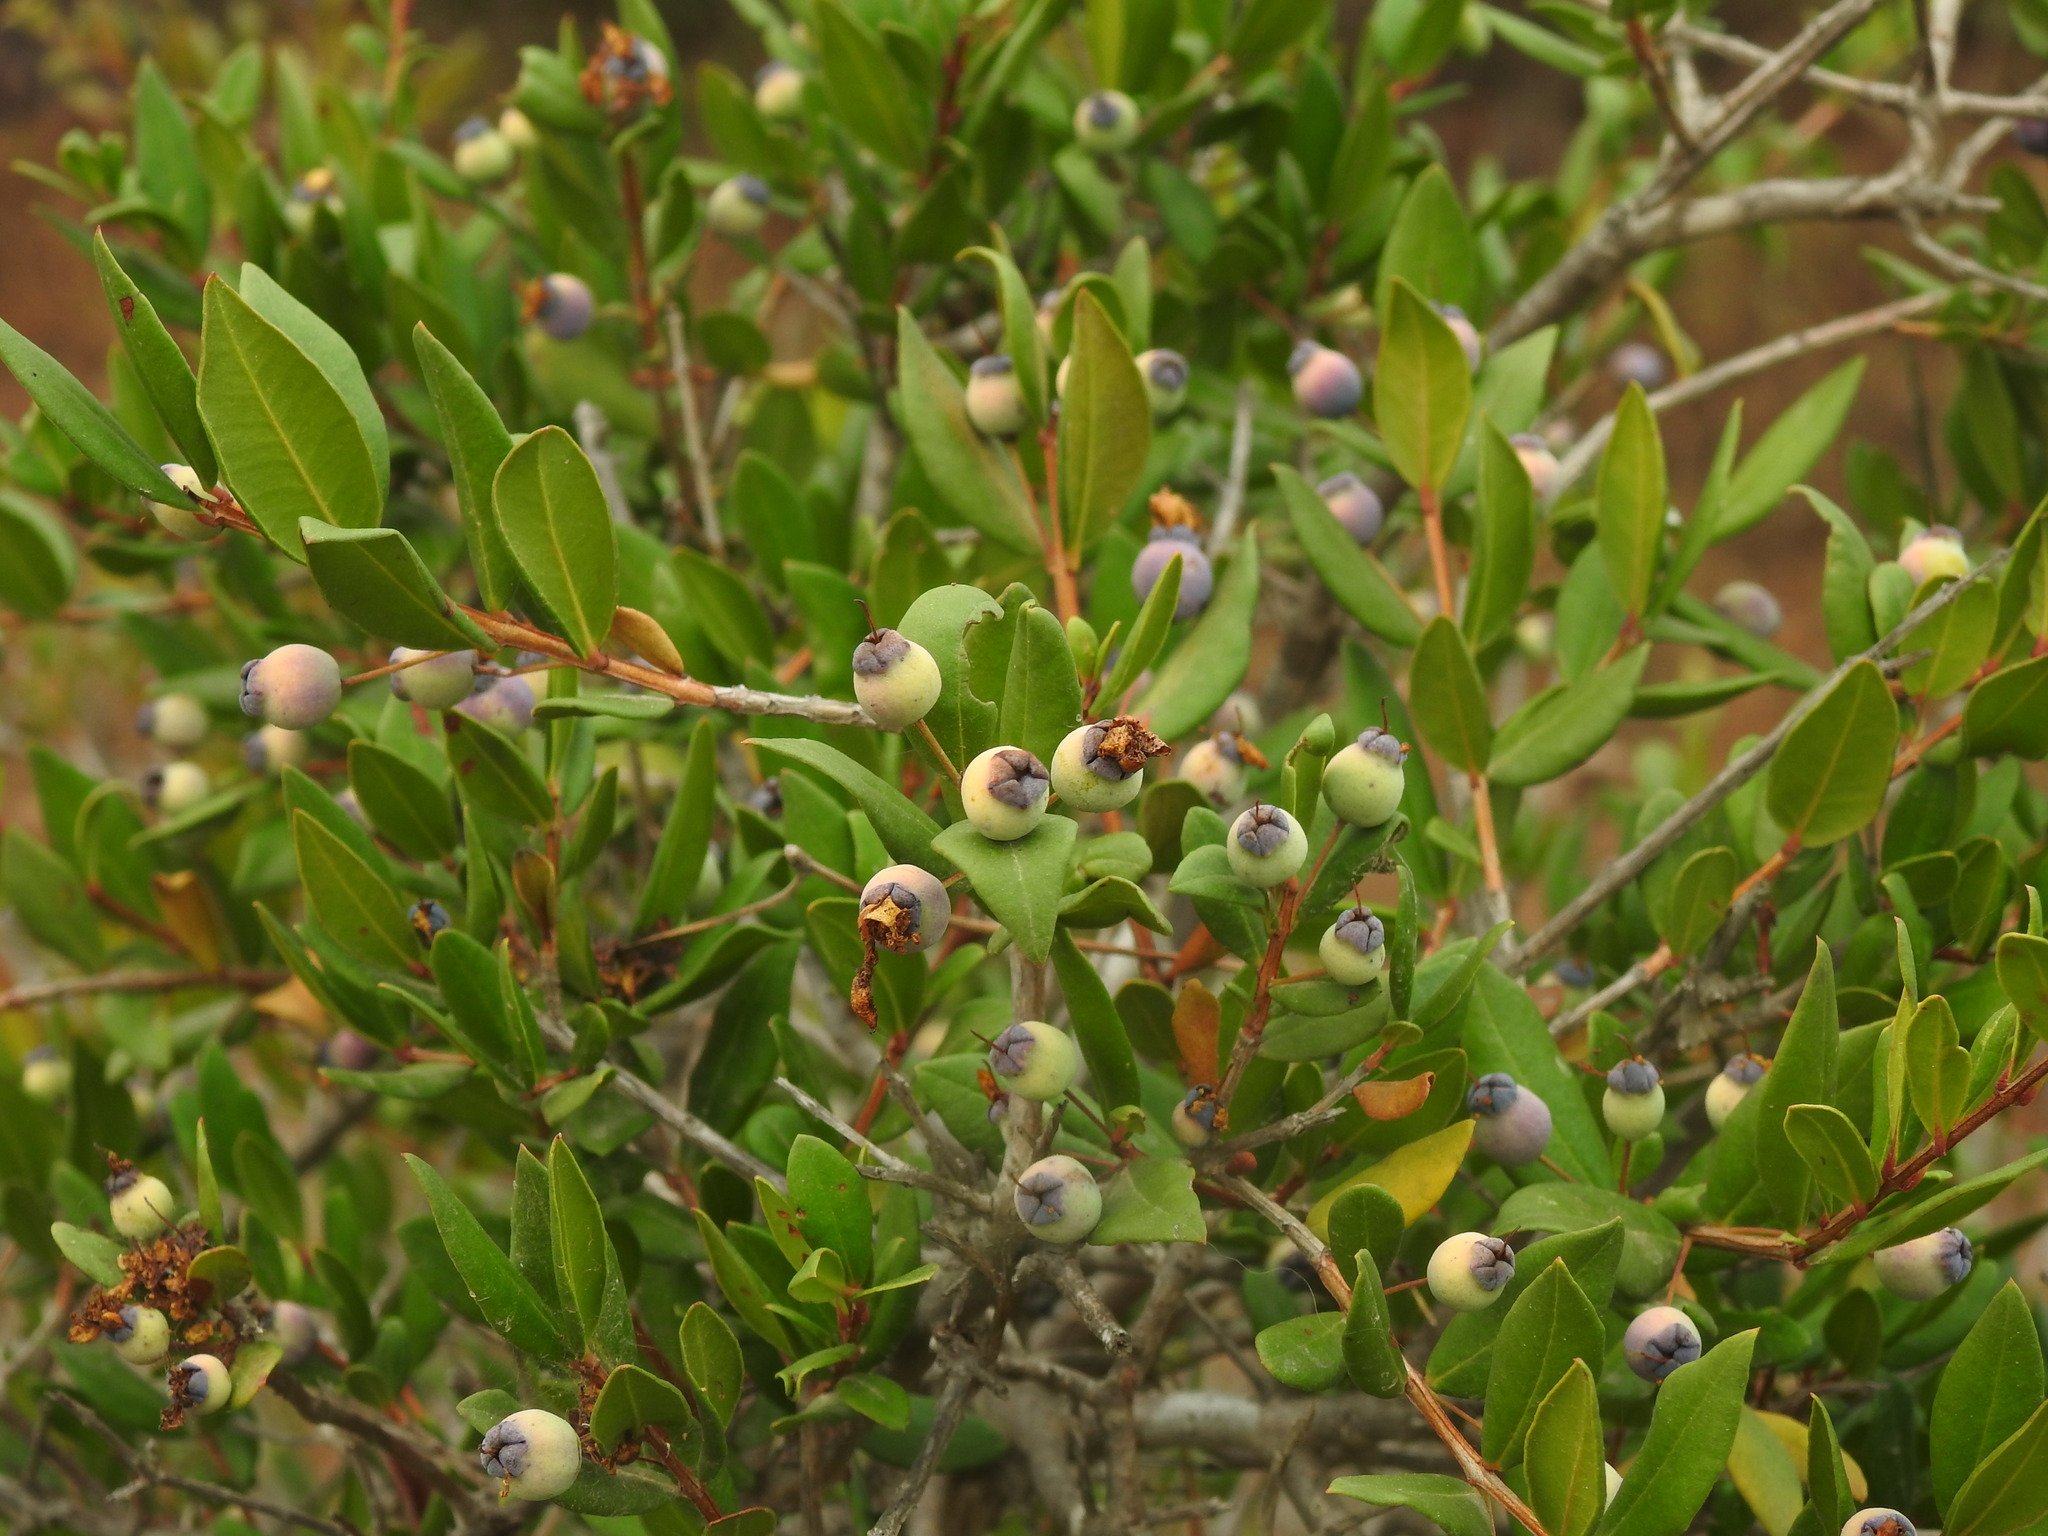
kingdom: Plantae
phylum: Tracheophyta
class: Magnoliopsida
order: Myrtales
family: Myrtaceae
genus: Myrtus
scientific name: Myrtus communis
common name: Myrtle
